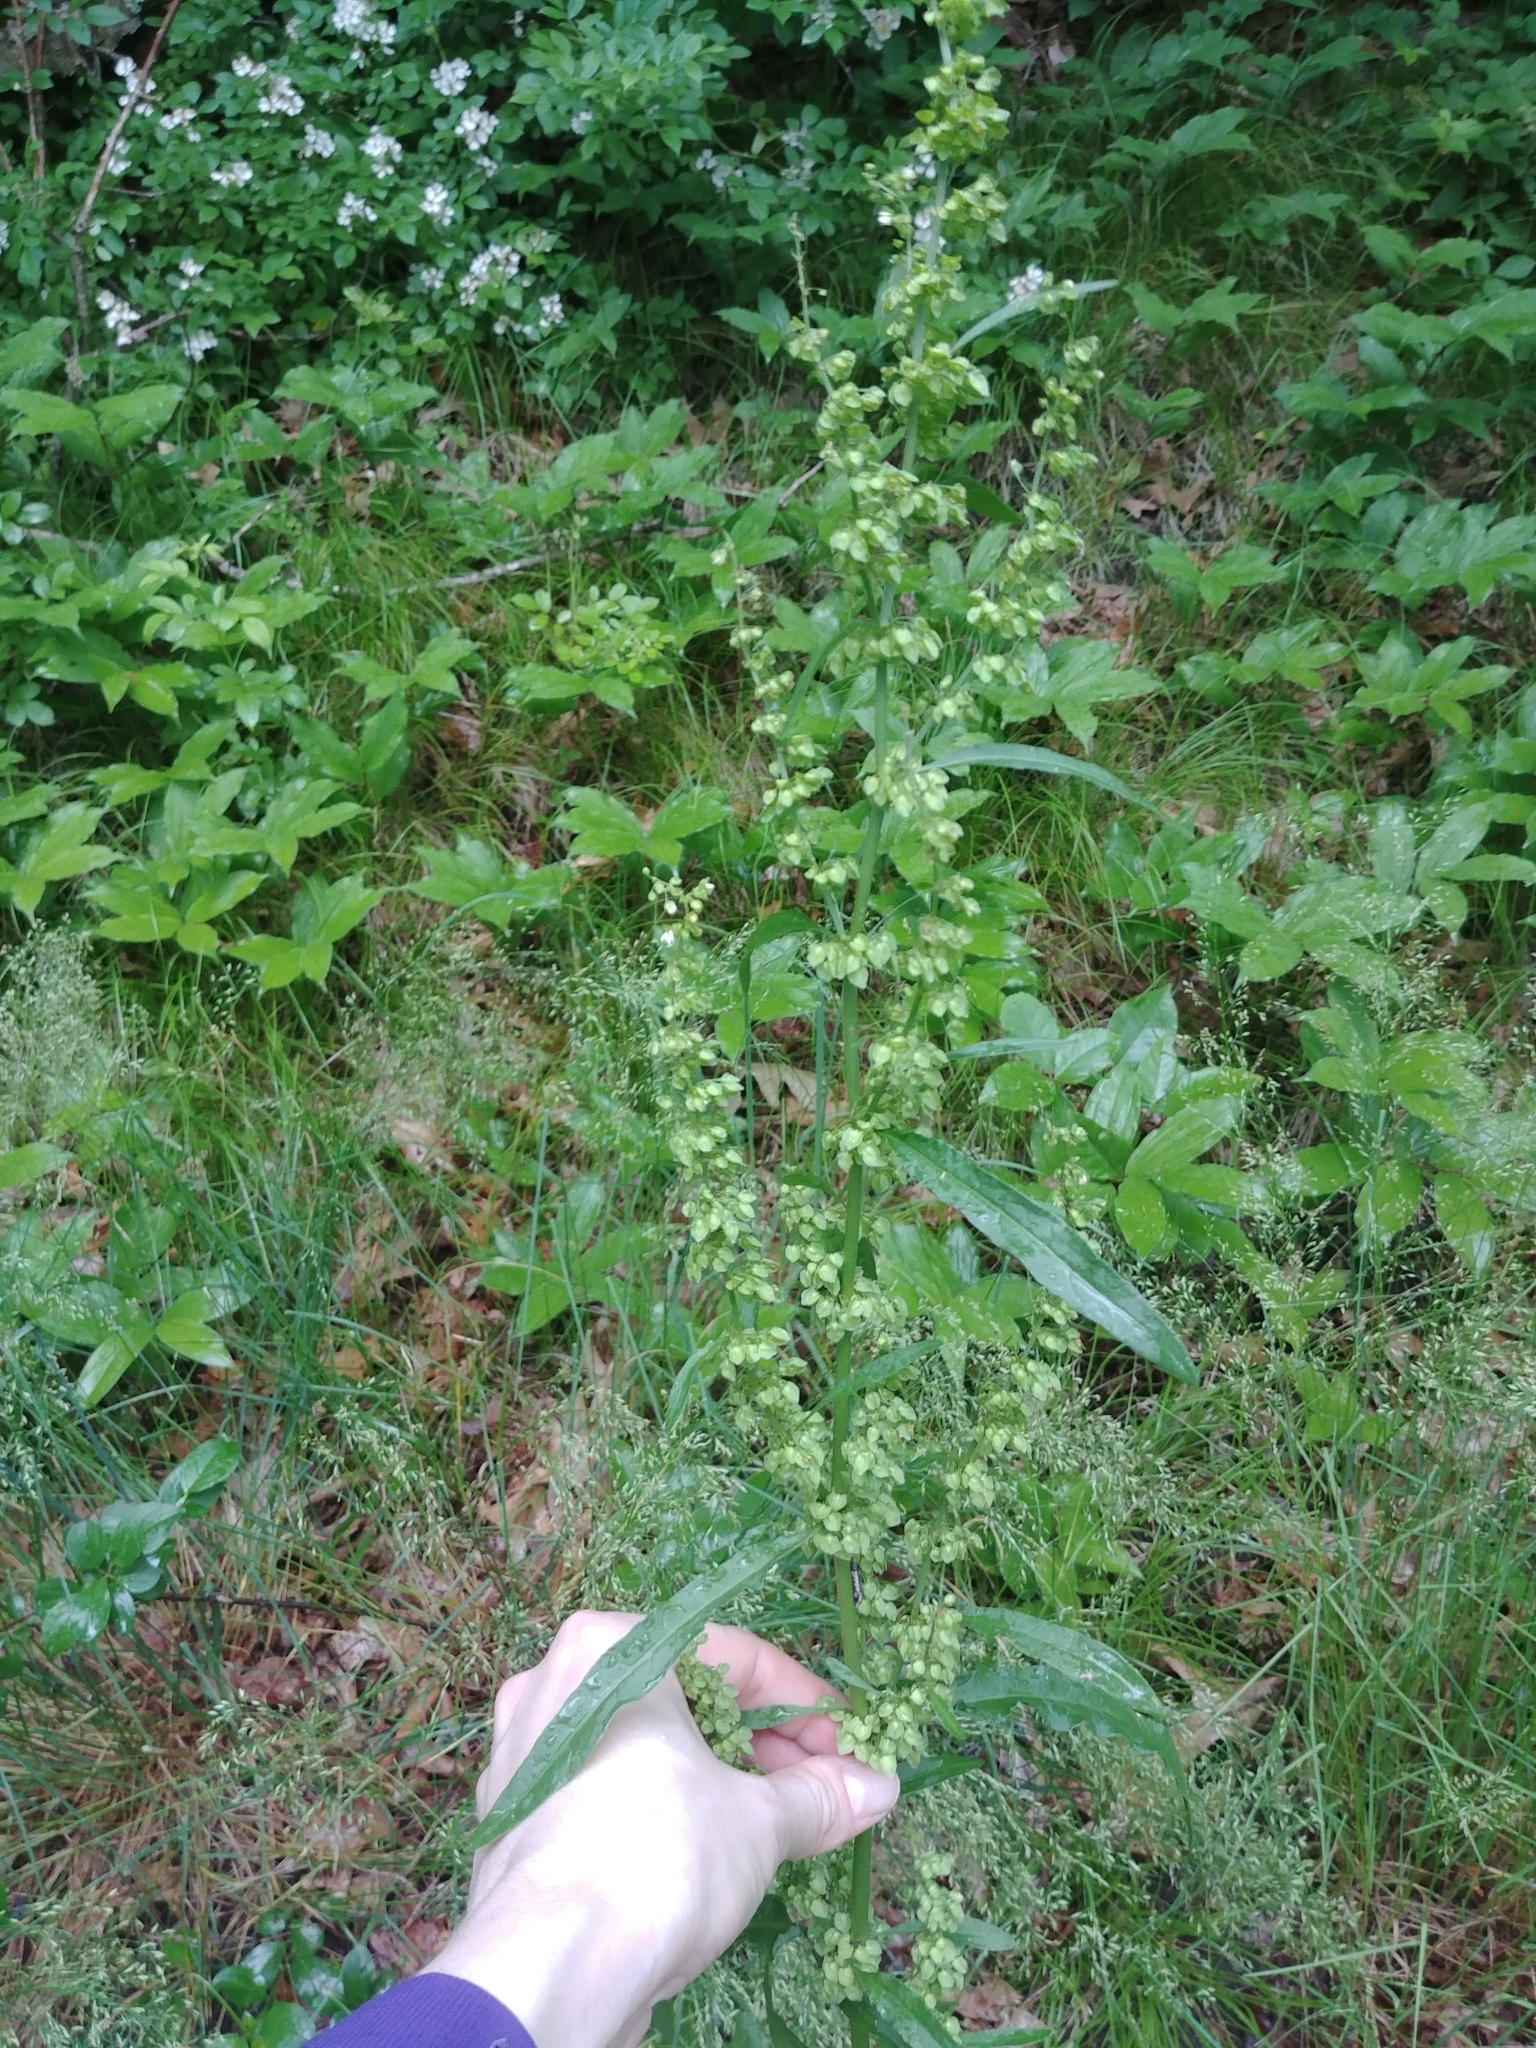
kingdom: Plantae
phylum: Tracheophyta
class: Magnoliopsida
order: Caryophyllales
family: Polygonaceae
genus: Rumex
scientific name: Rumex crispus
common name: Curled dock
